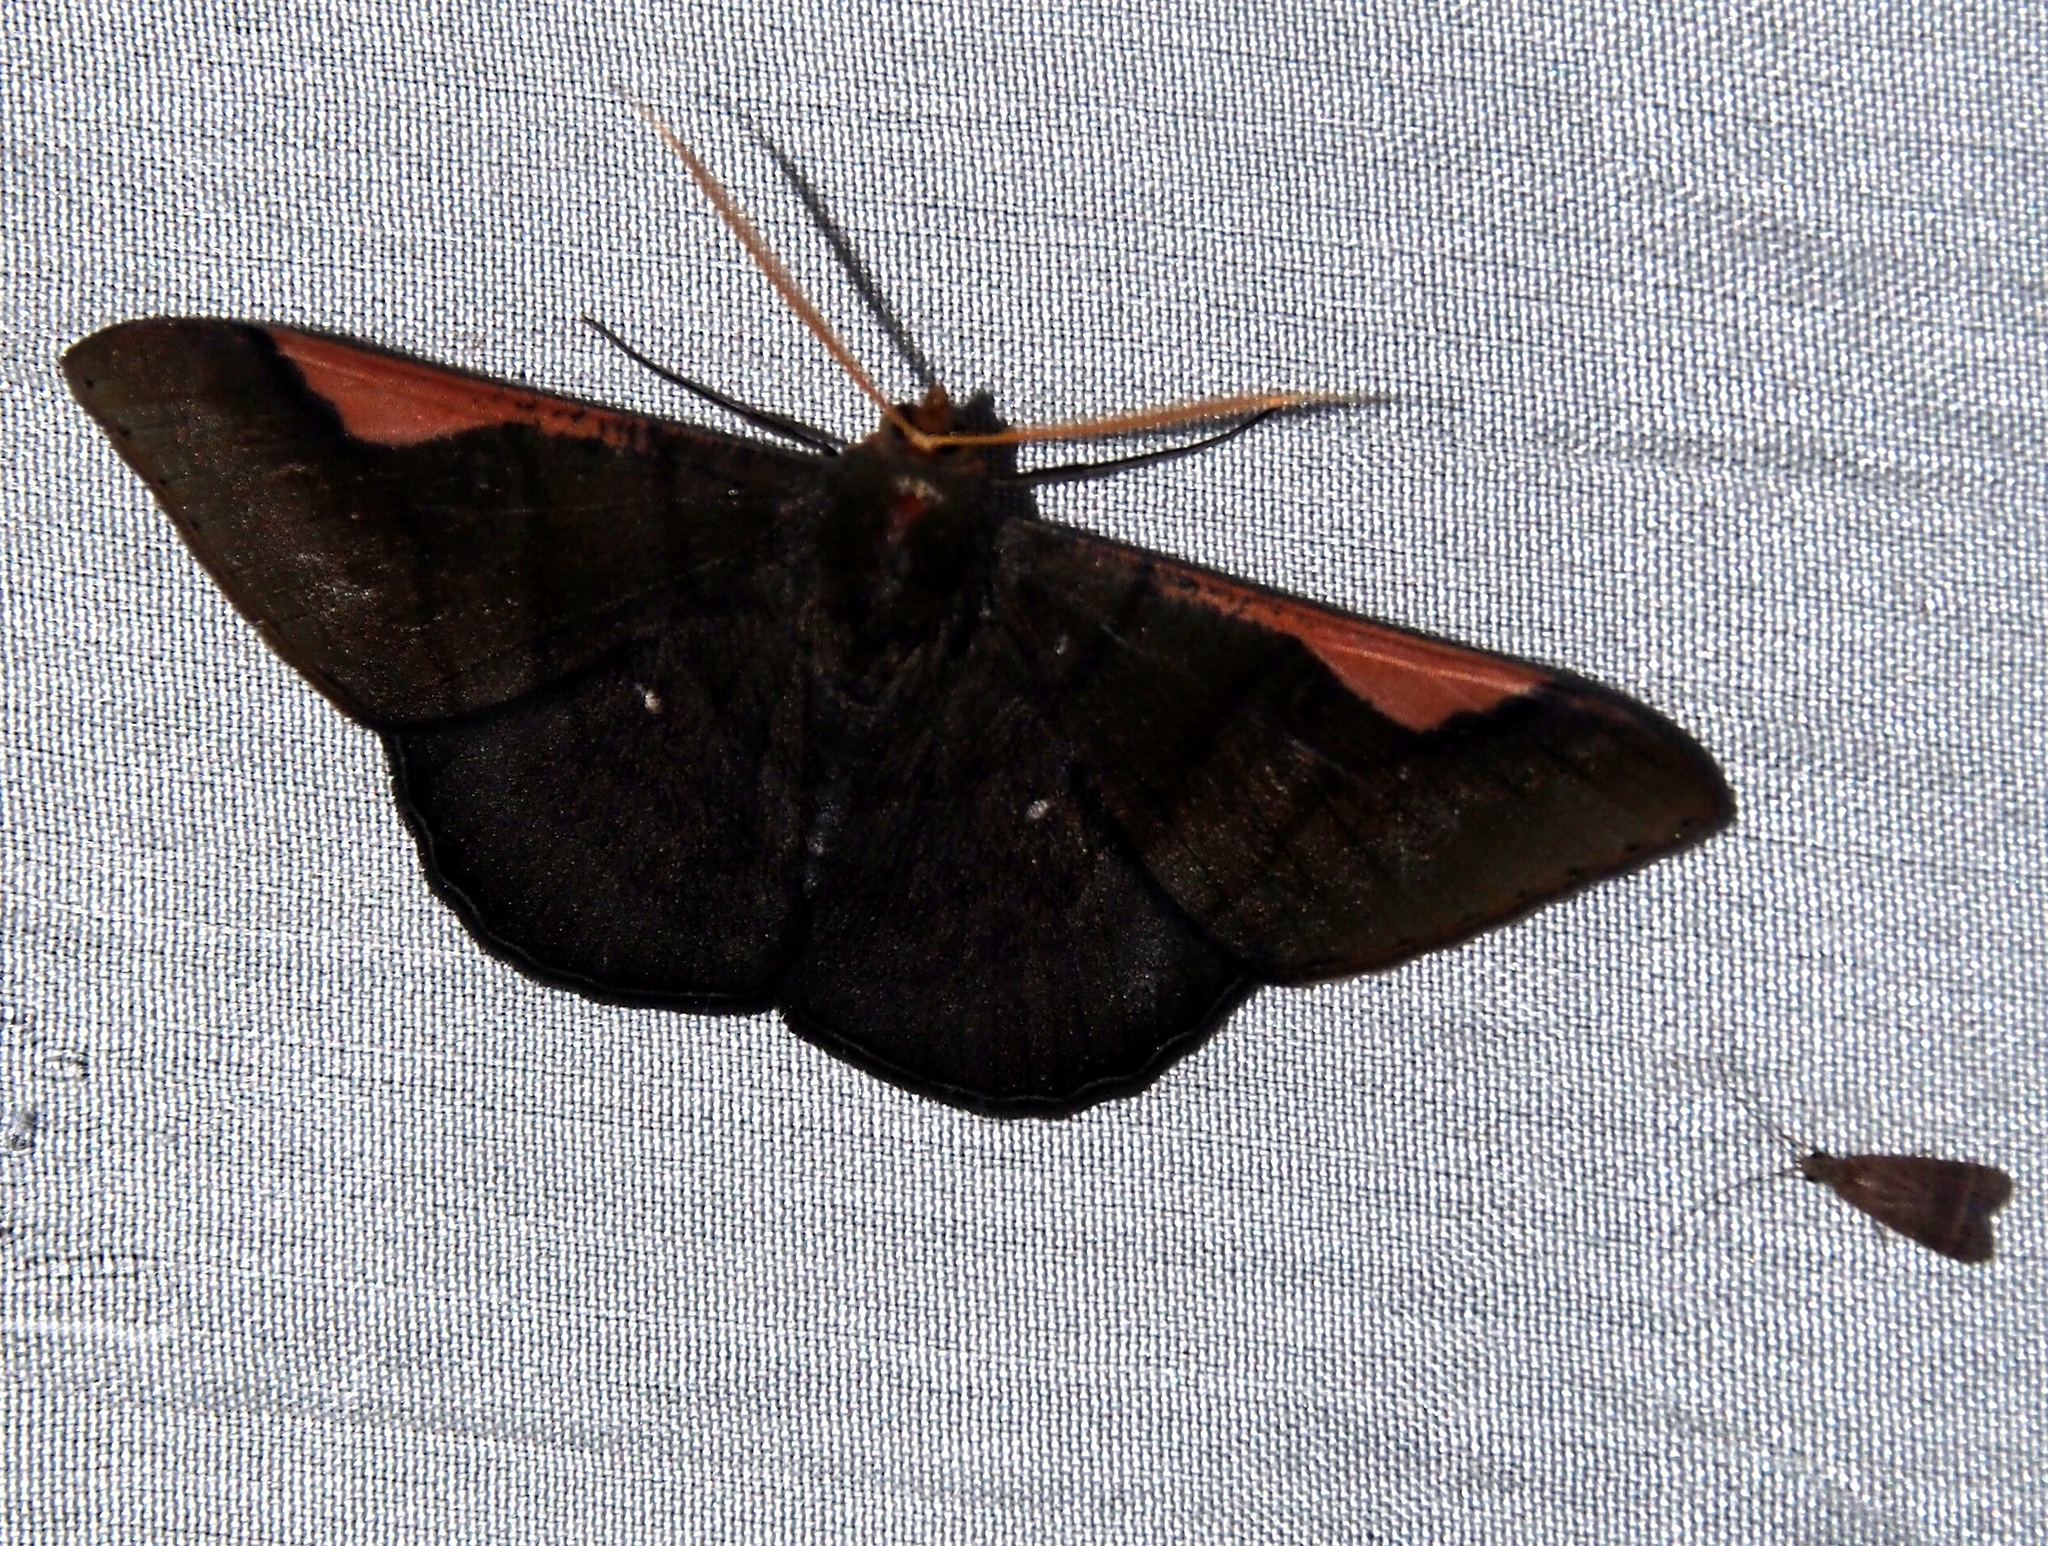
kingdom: Animalia
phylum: Arthropoda
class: Insecta
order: Lepidoptera
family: Geometridae
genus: Sphacelodes
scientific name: Sphacelodes vulneraria
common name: Looper moth
